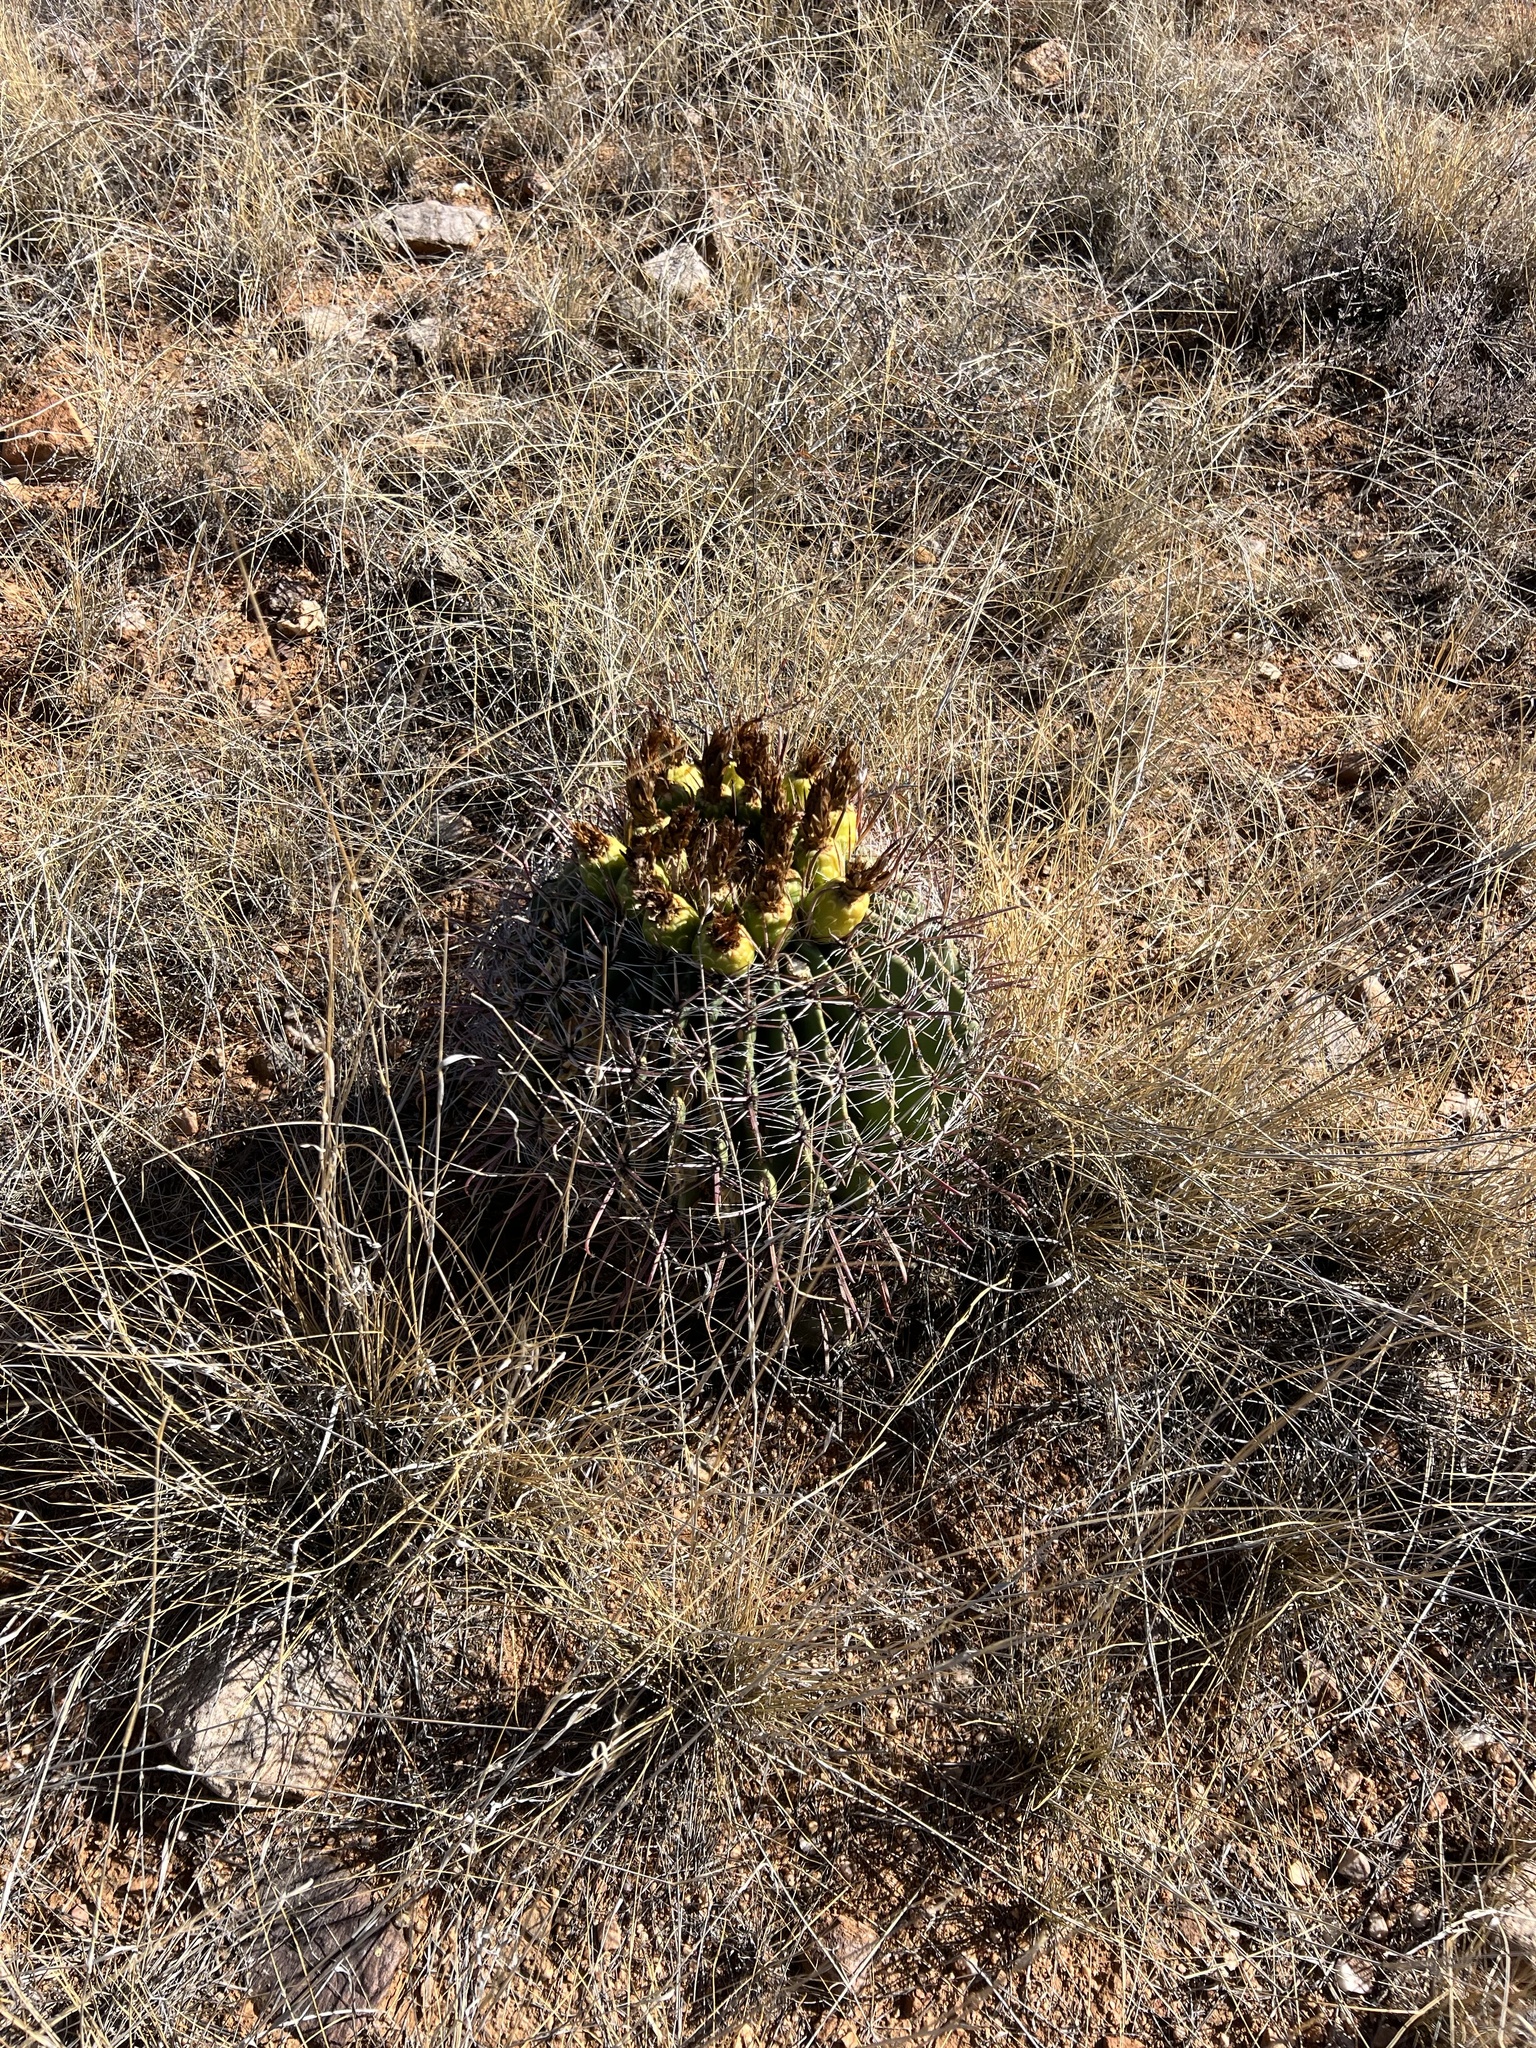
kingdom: Plantae
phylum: Tracheophyta
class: Magnoliopsida
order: Caryophyllales
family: Cactaceae
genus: Ferocactus
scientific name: Ferocactus wislizeni
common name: Candy barrel cactus
